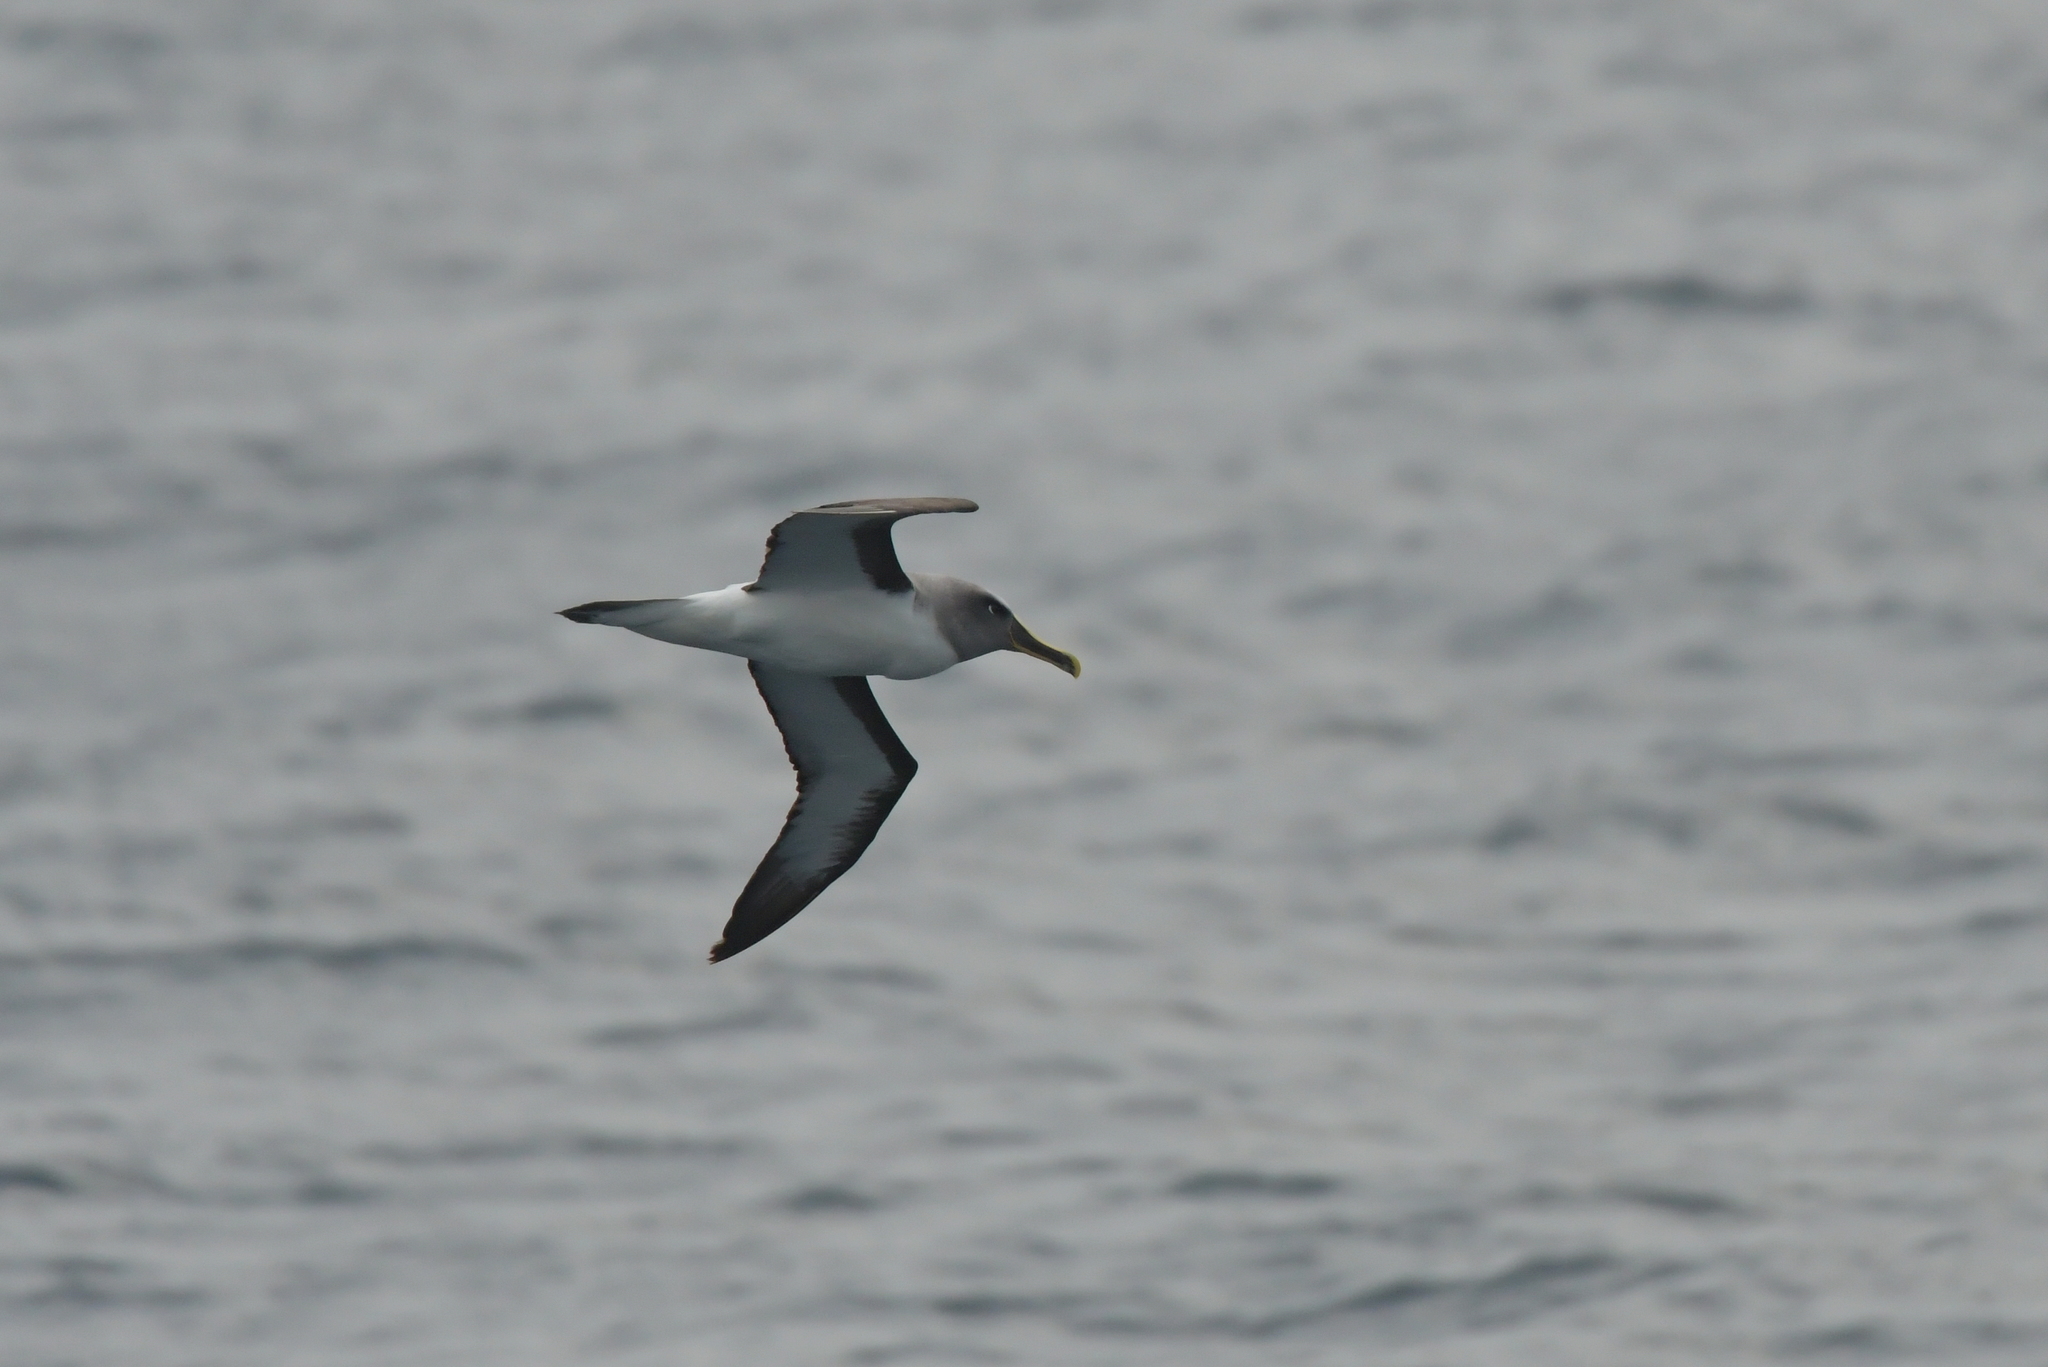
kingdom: Animalia
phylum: Chordata
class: Aves
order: Procellariiformes
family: Diomedeidae
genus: Thalassarche
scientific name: Thalassarche bulleri
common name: Buller's albatross
